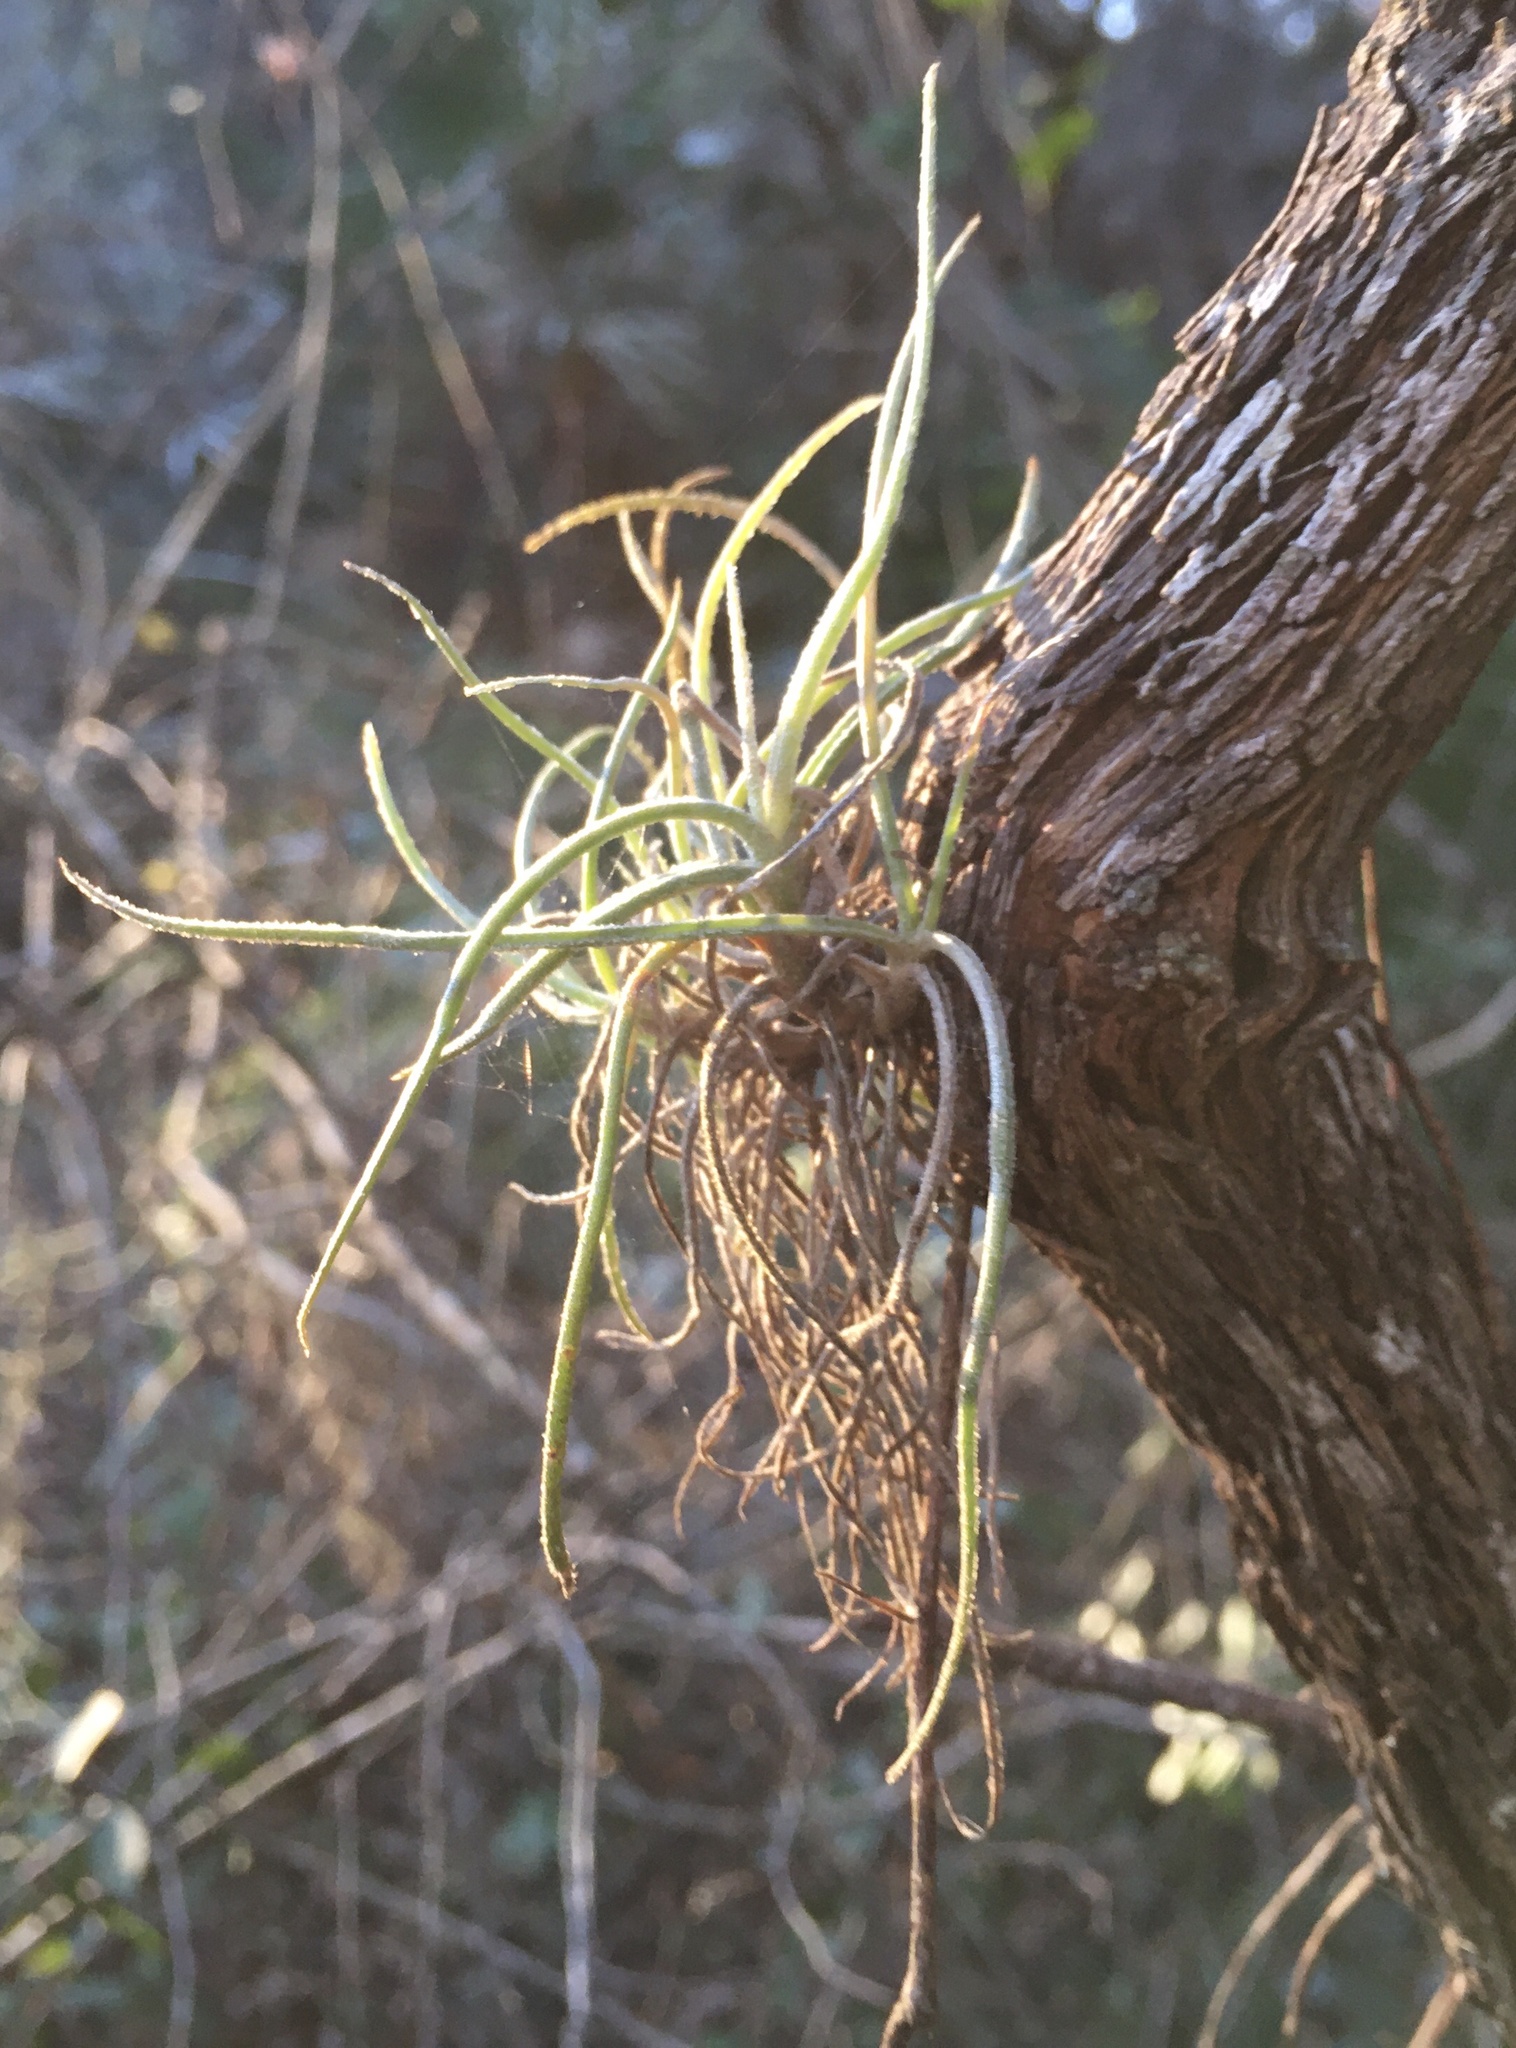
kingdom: Plantae
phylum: Tracheophyta
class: Liliopsida
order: Poales
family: Bromeliaceae
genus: Tillandsia
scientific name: Tillandsia recurvata
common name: Small ballmoss
